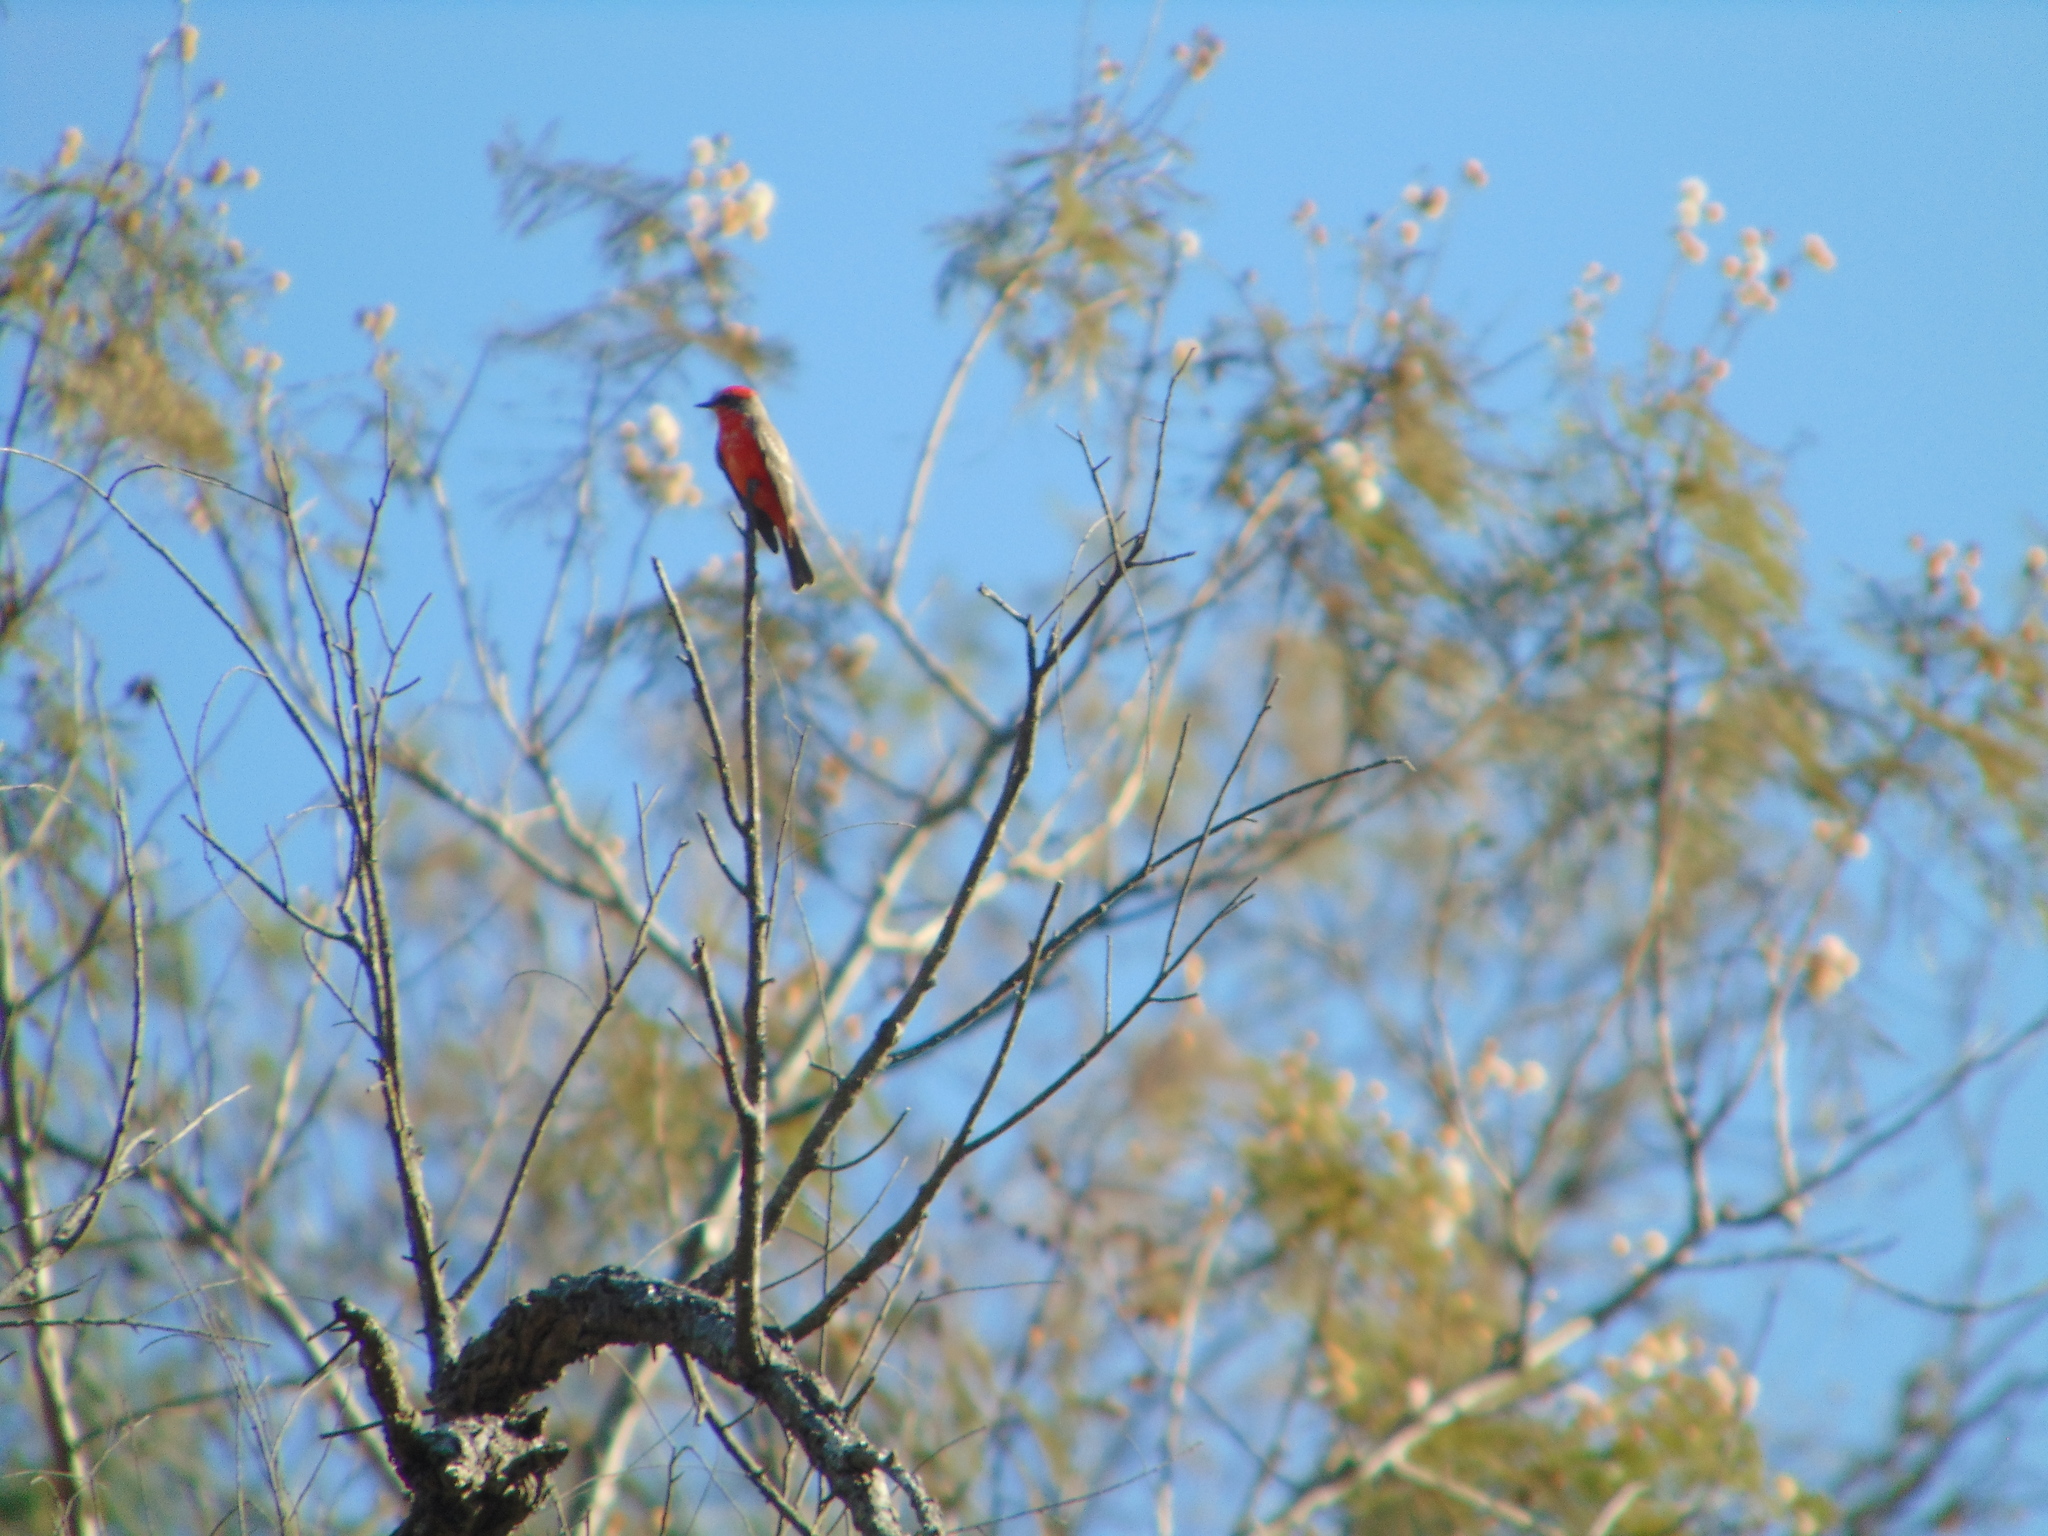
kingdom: Animalia
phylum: Chordata
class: Aves
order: Passeriformes
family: Tyrannidae
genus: Pyrocephalus
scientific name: Pyrocephalus rubinus
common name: Vermilion flycatcher
